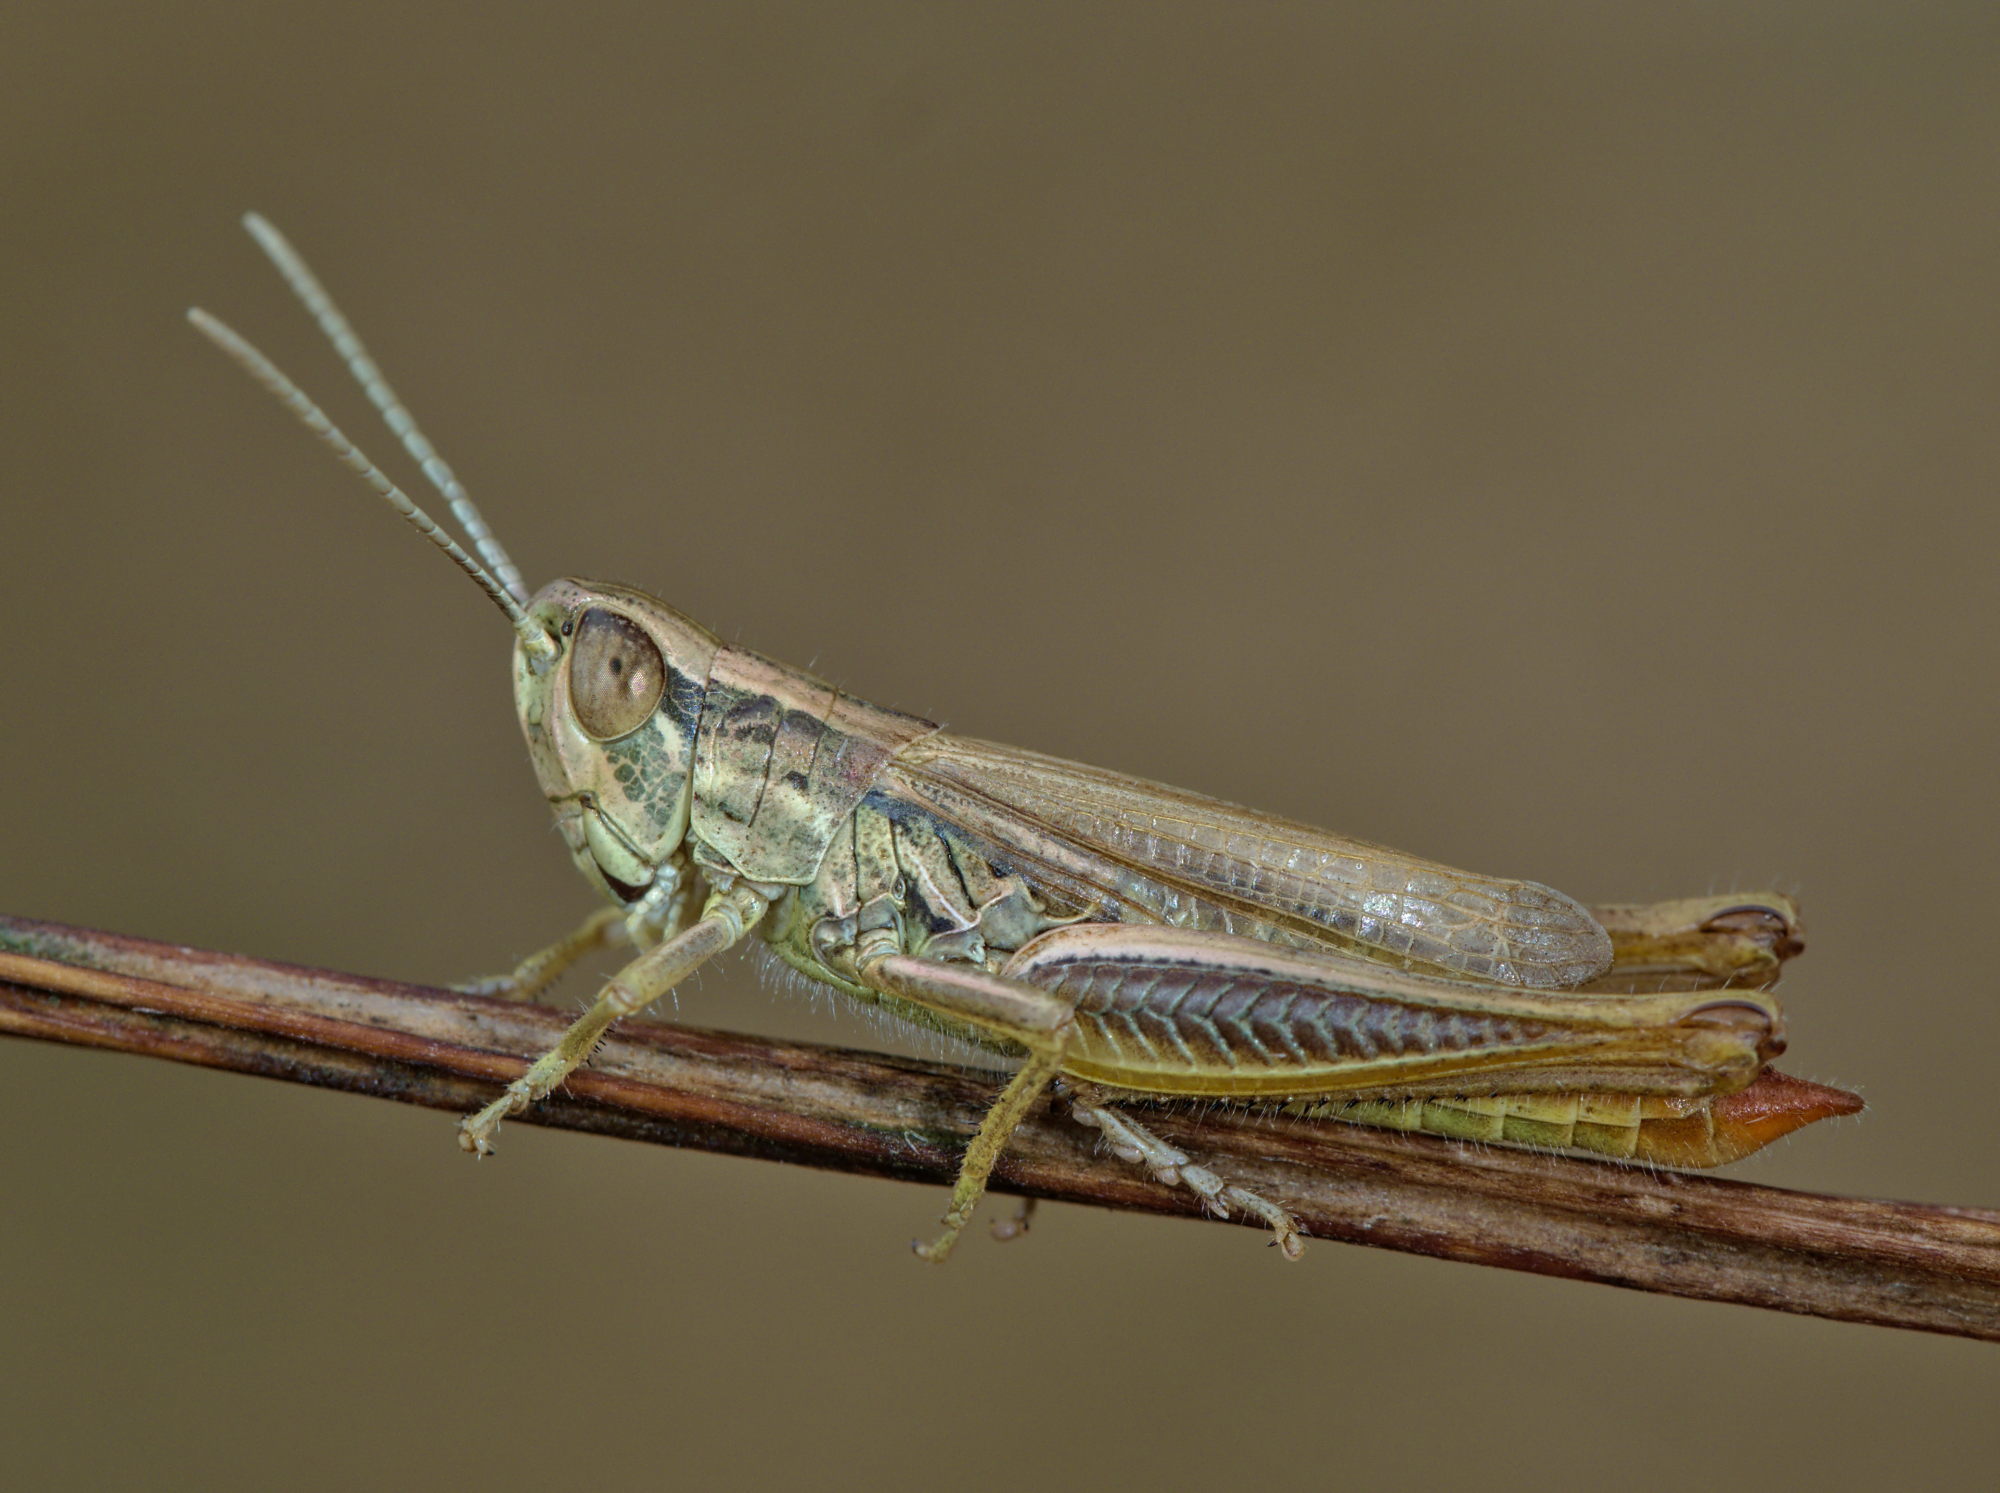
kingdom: Animalia
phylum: Arthropoda
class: Insecta
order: Orthoptera
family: Acrididae
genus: Euchorthippus
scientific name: Euchorthippus declivus
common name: Common straw grasshopper
